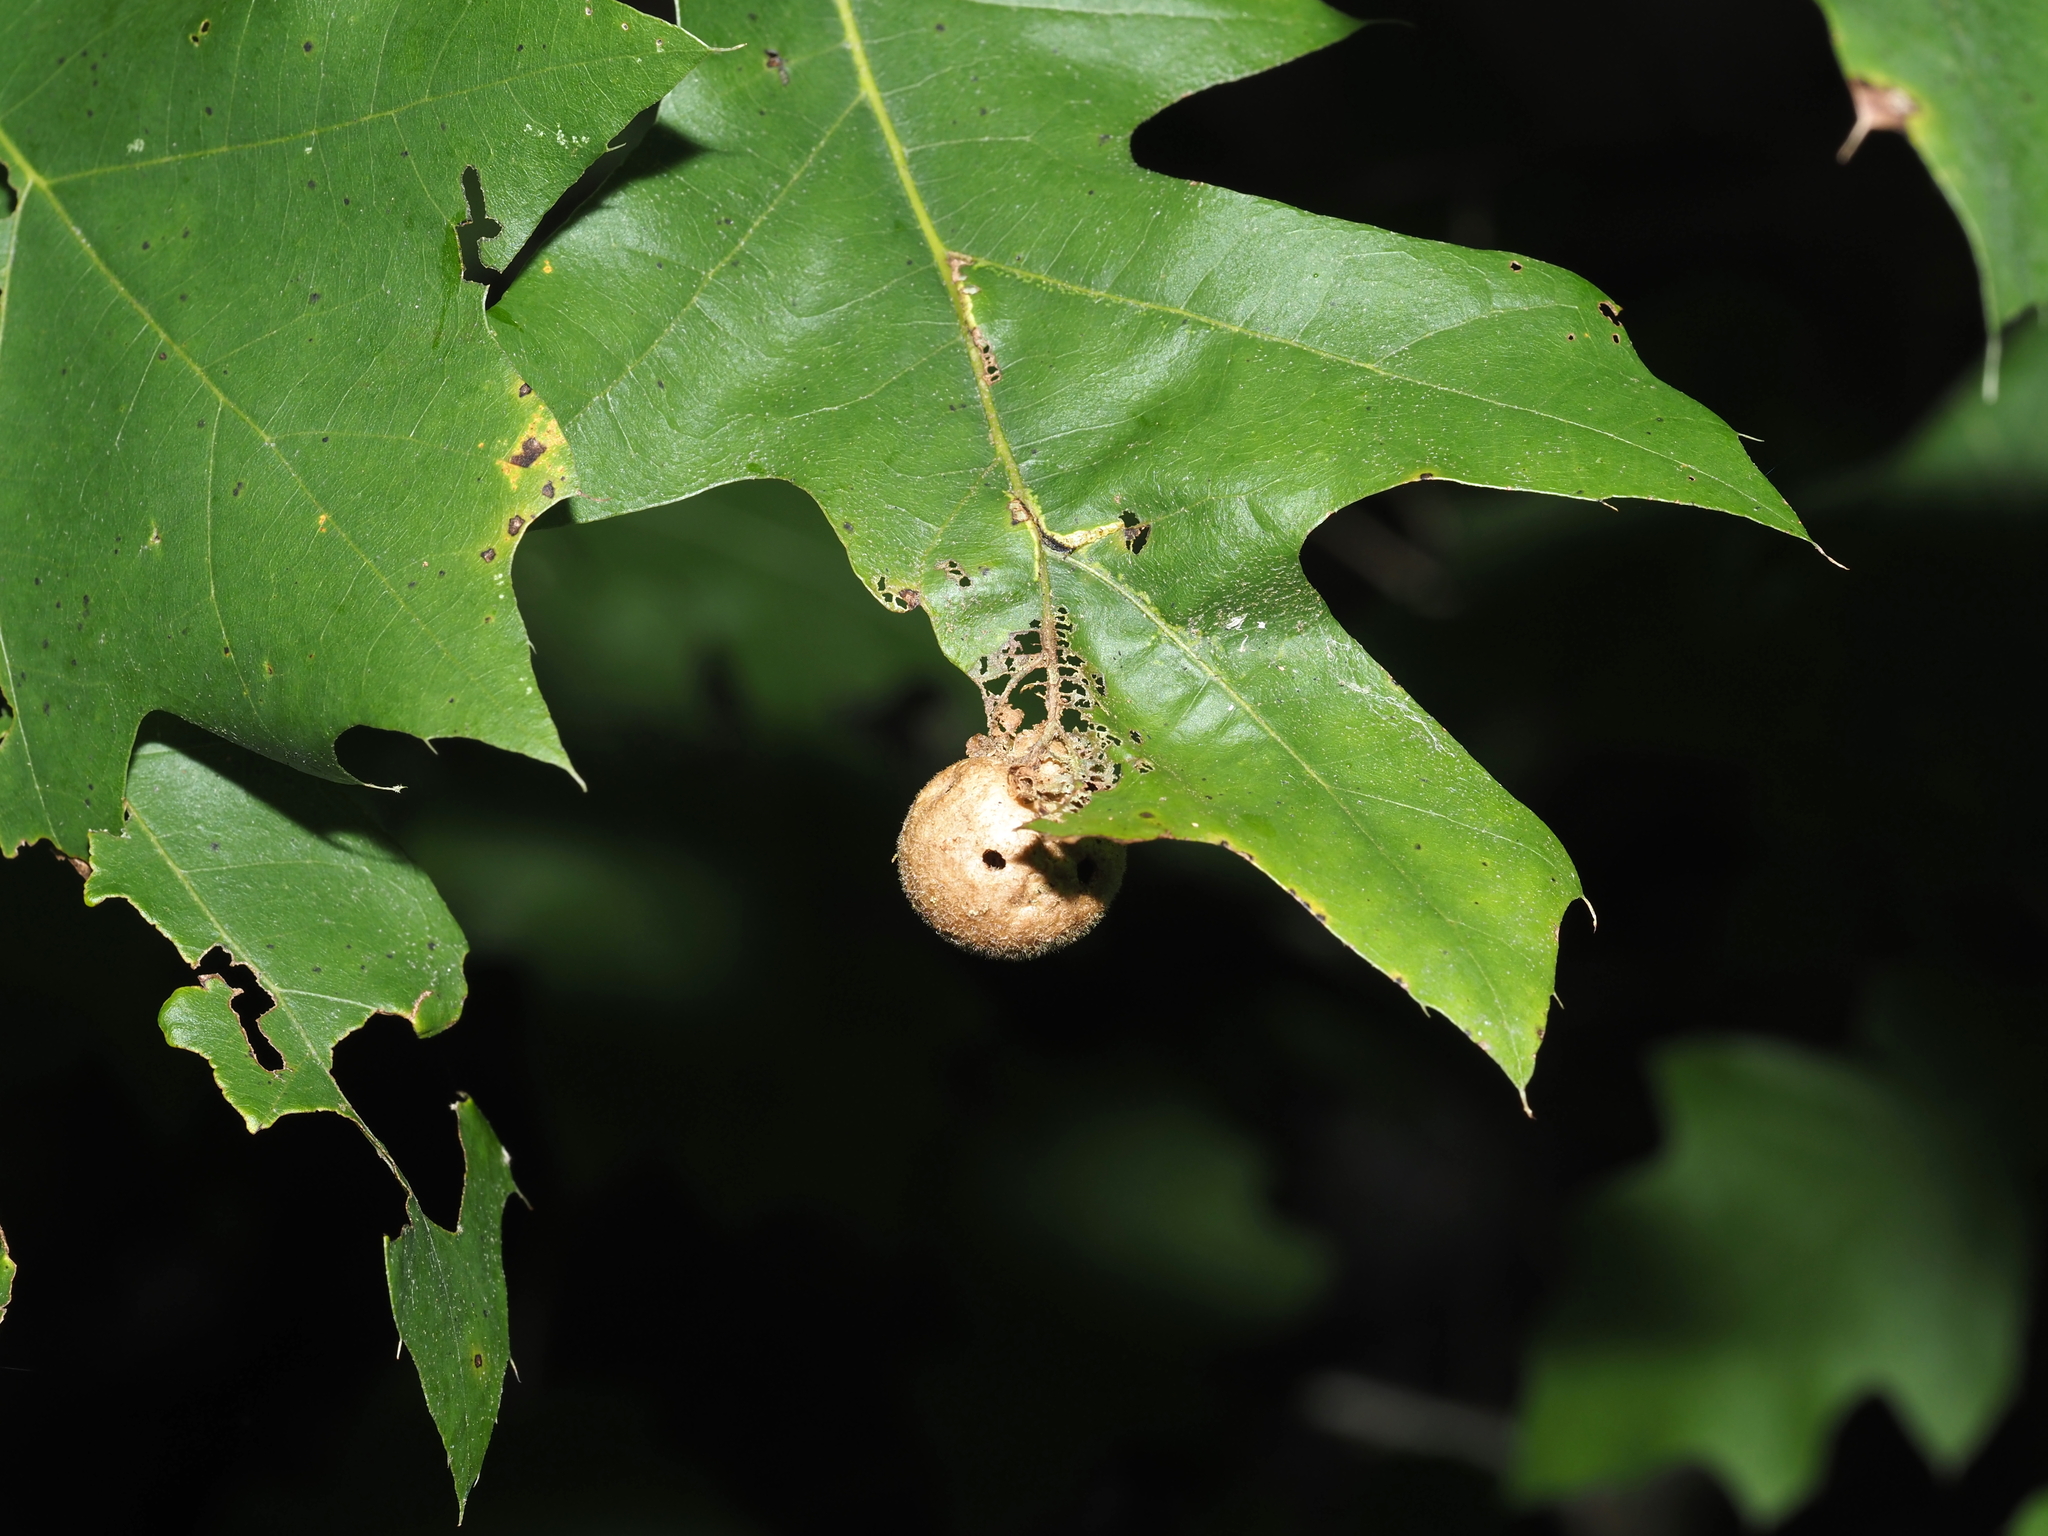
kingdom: Animalia
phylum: Arthropoda
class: Insecta
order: Hymenoptera
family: Cynipidae
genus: Amphibolips
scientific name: Amphibolips
